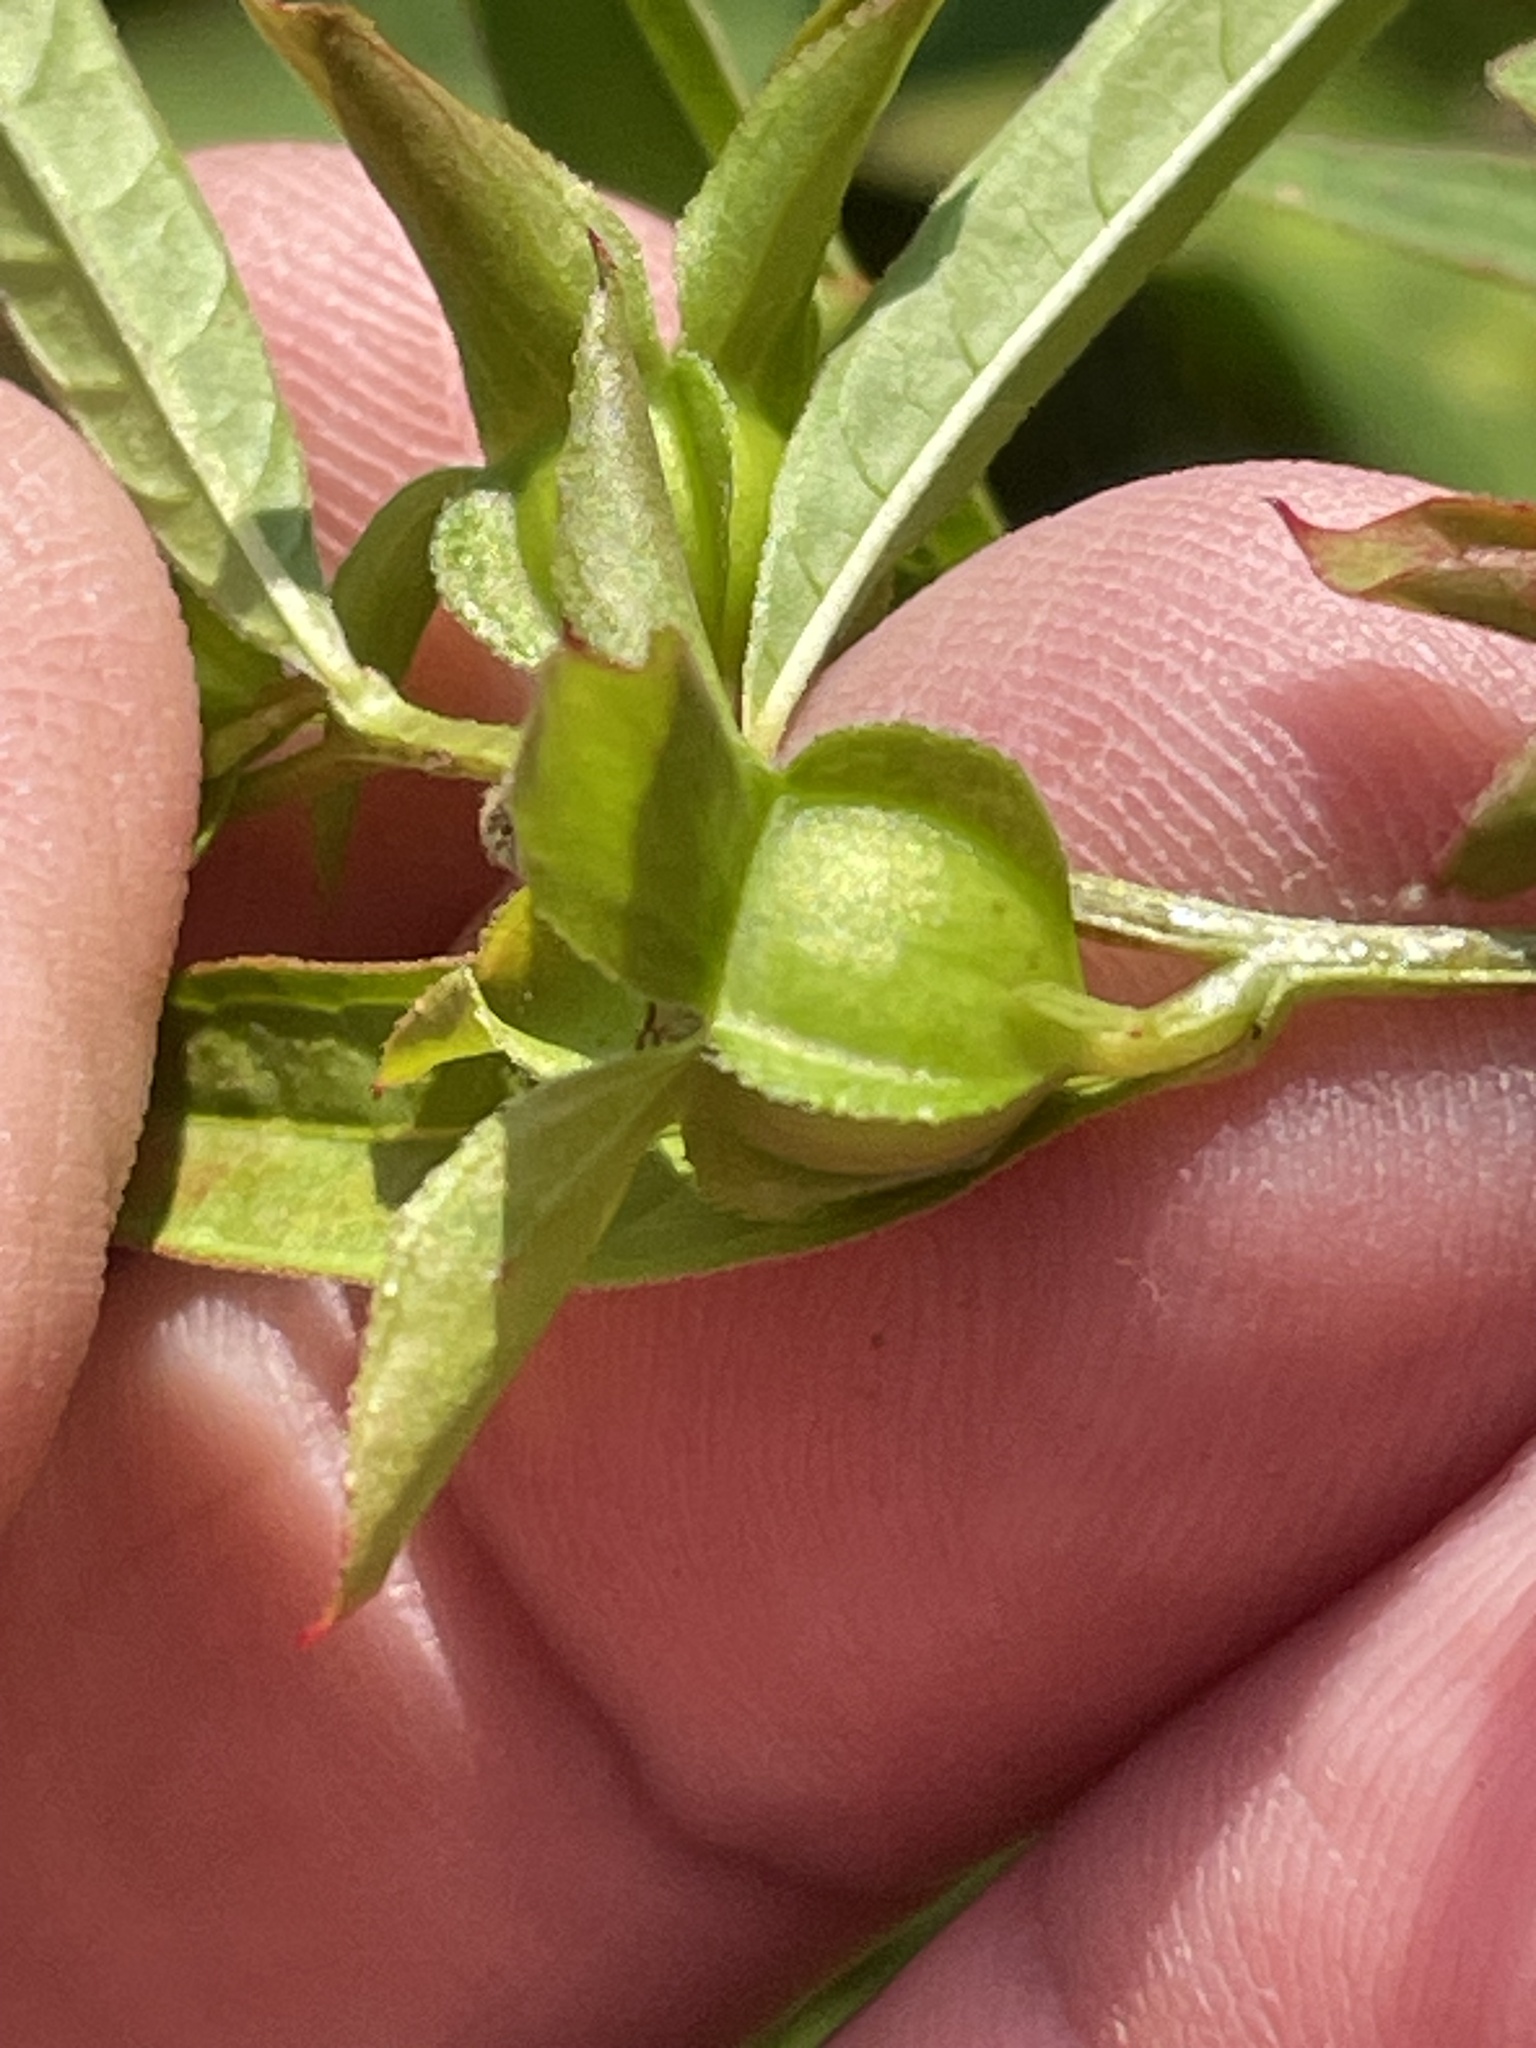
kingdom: Plantae
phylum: Tracheophyta
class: Magnoliopsida
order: Myrtales
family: Onagraceae
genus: Ludwigia
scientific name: Ludwigia alternifolia
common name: Rattlebox
